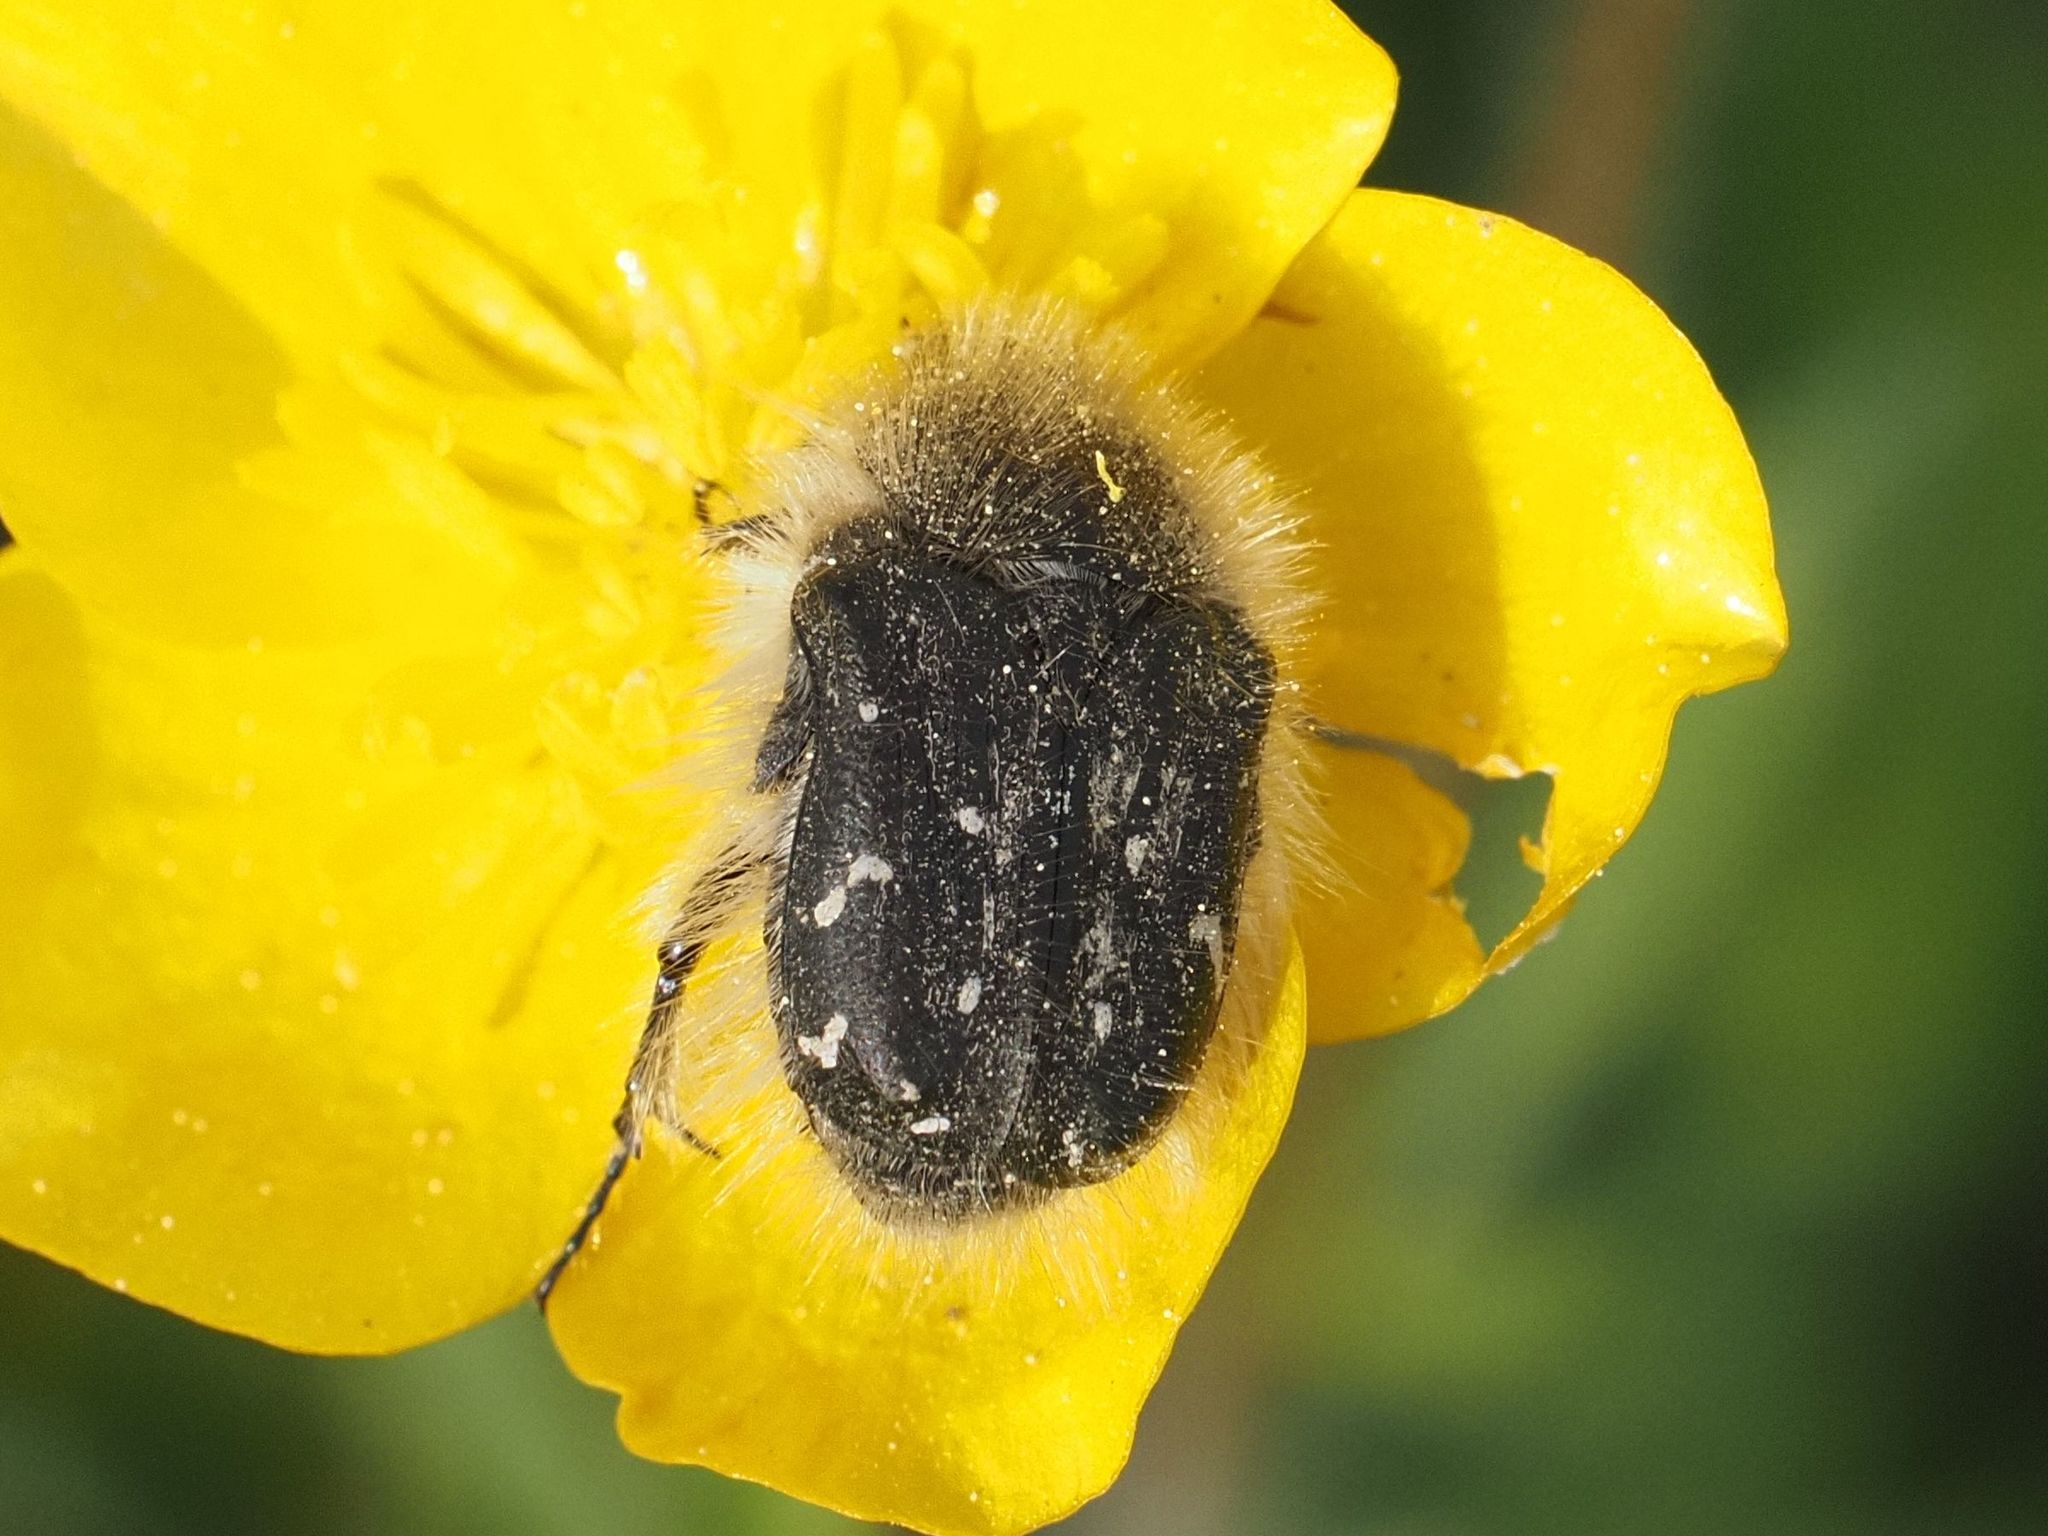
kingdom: Animalia
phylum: Arthropoda
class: Insecta
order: Coleoptera
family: Scarabaeidae
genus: Tropinota
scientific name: Tropinota hirta
